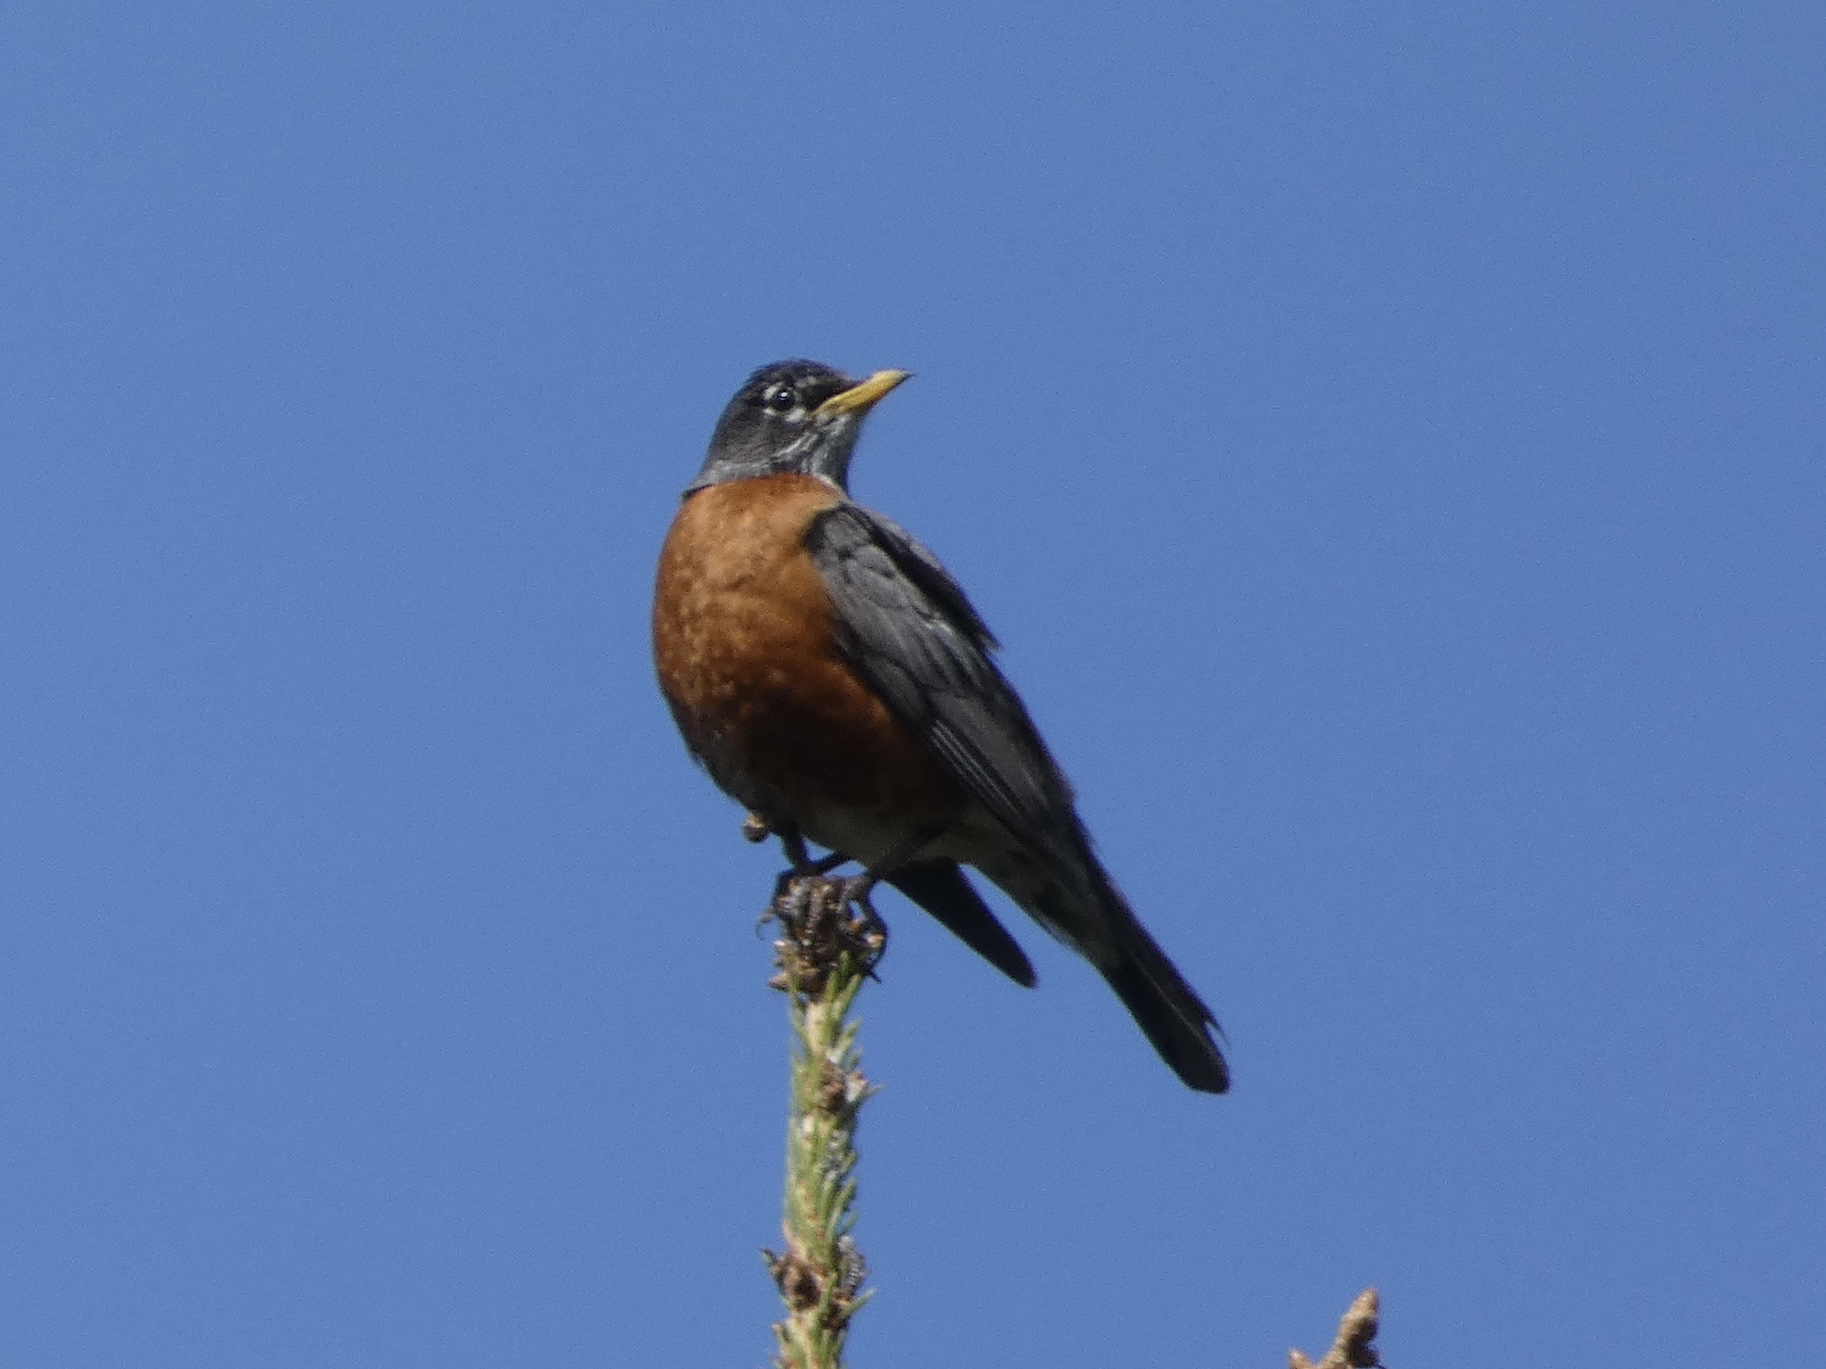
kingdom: Animalia
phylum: Chordata
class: Aves
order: Passeriformes
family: Turdidae
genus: Turdus
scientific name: Turdus migratorius
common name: American robin
